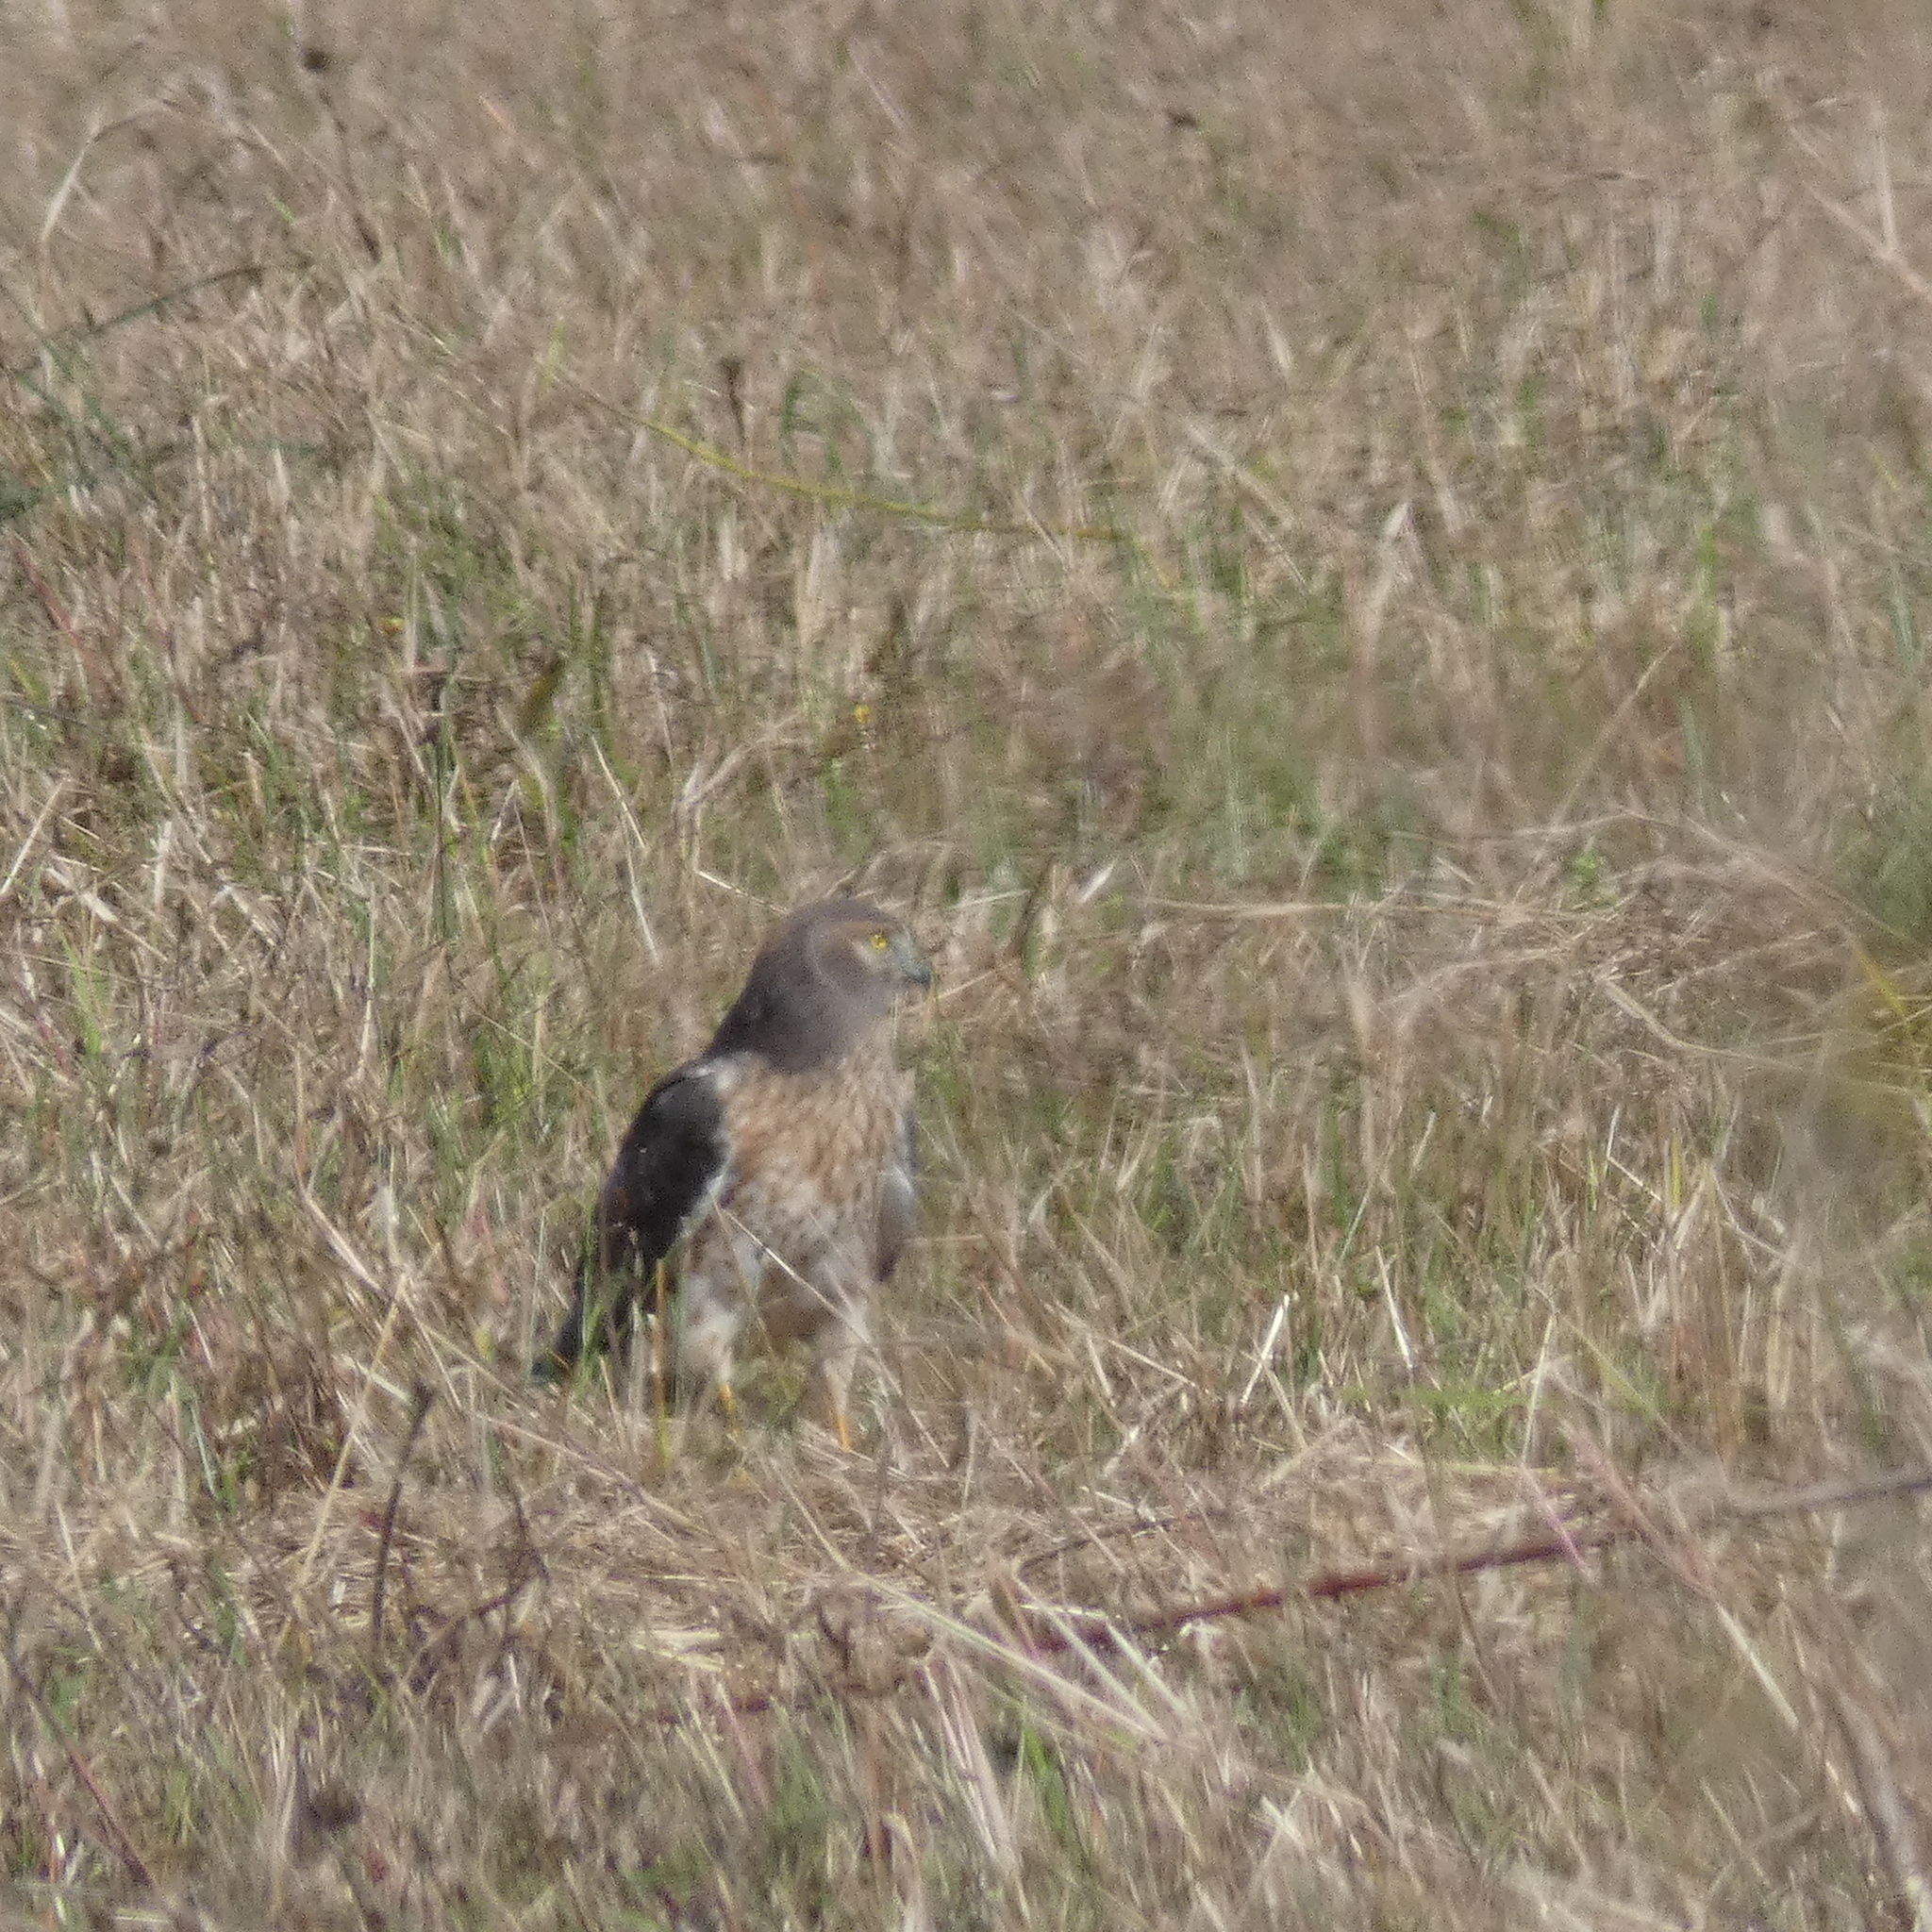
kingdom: Animalia
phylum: Chordata
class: Aves
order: Accipitriformes
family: Accipitridae
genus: Circus
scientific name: Circus cyaneus
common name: Hen harrier
